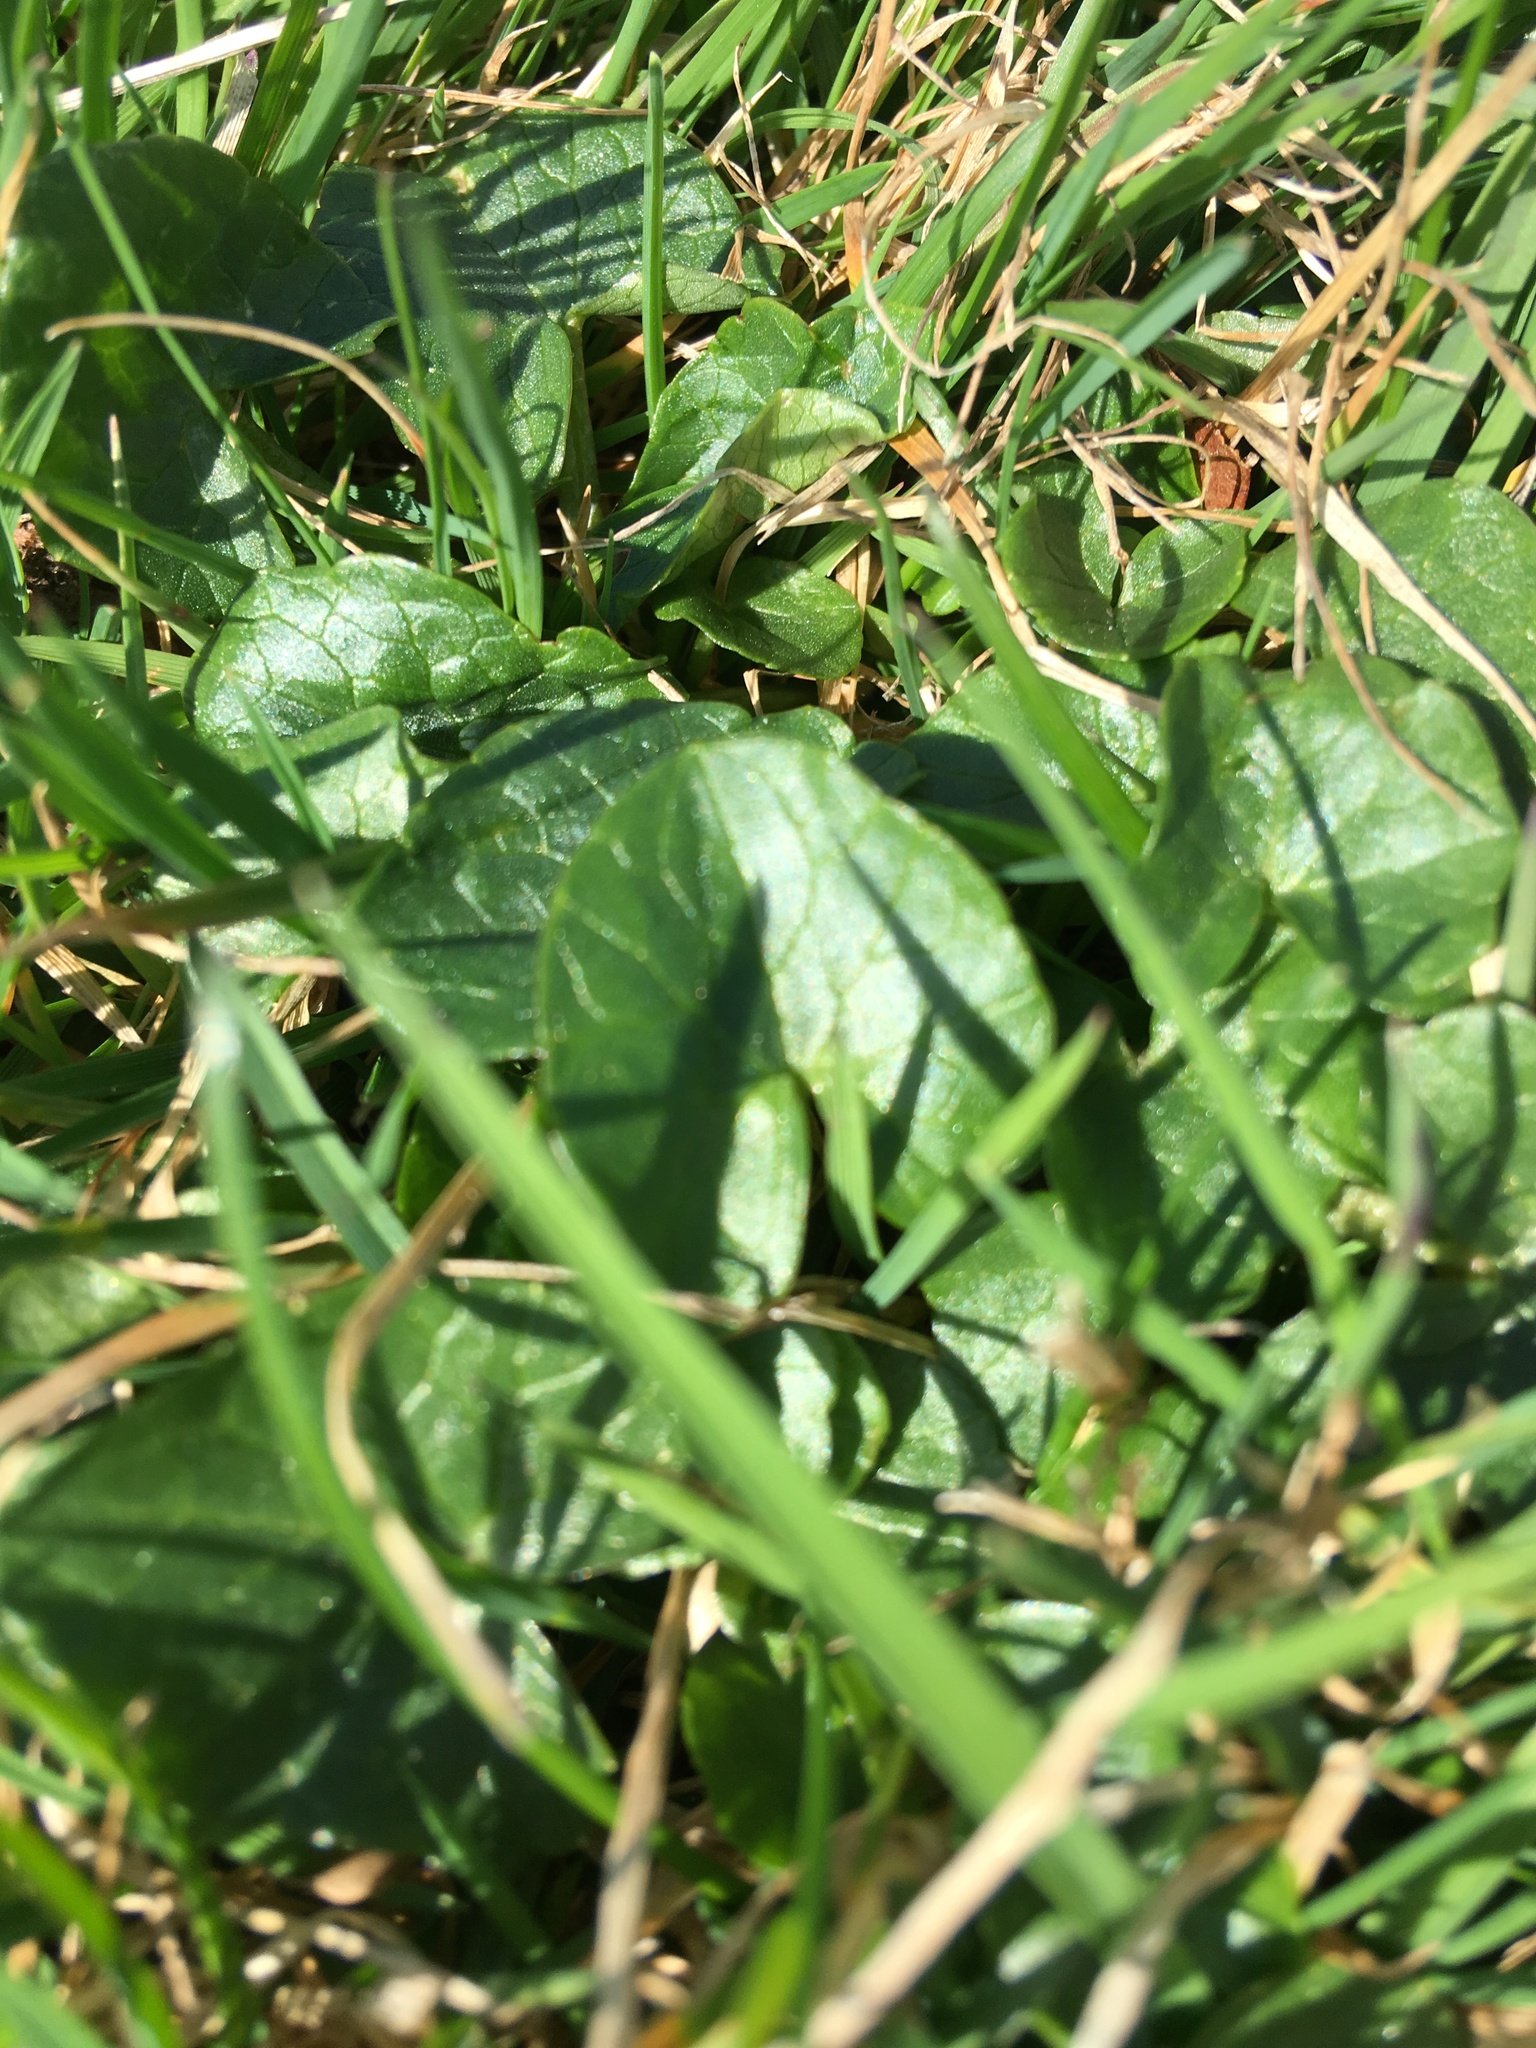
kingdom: Plantae
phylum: Tracheophyta
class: Magnoliopsida
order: Ranunculales
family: Ranunculaceae
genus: Ficaria
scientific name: Ficaria verna
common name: Lesser celandine
